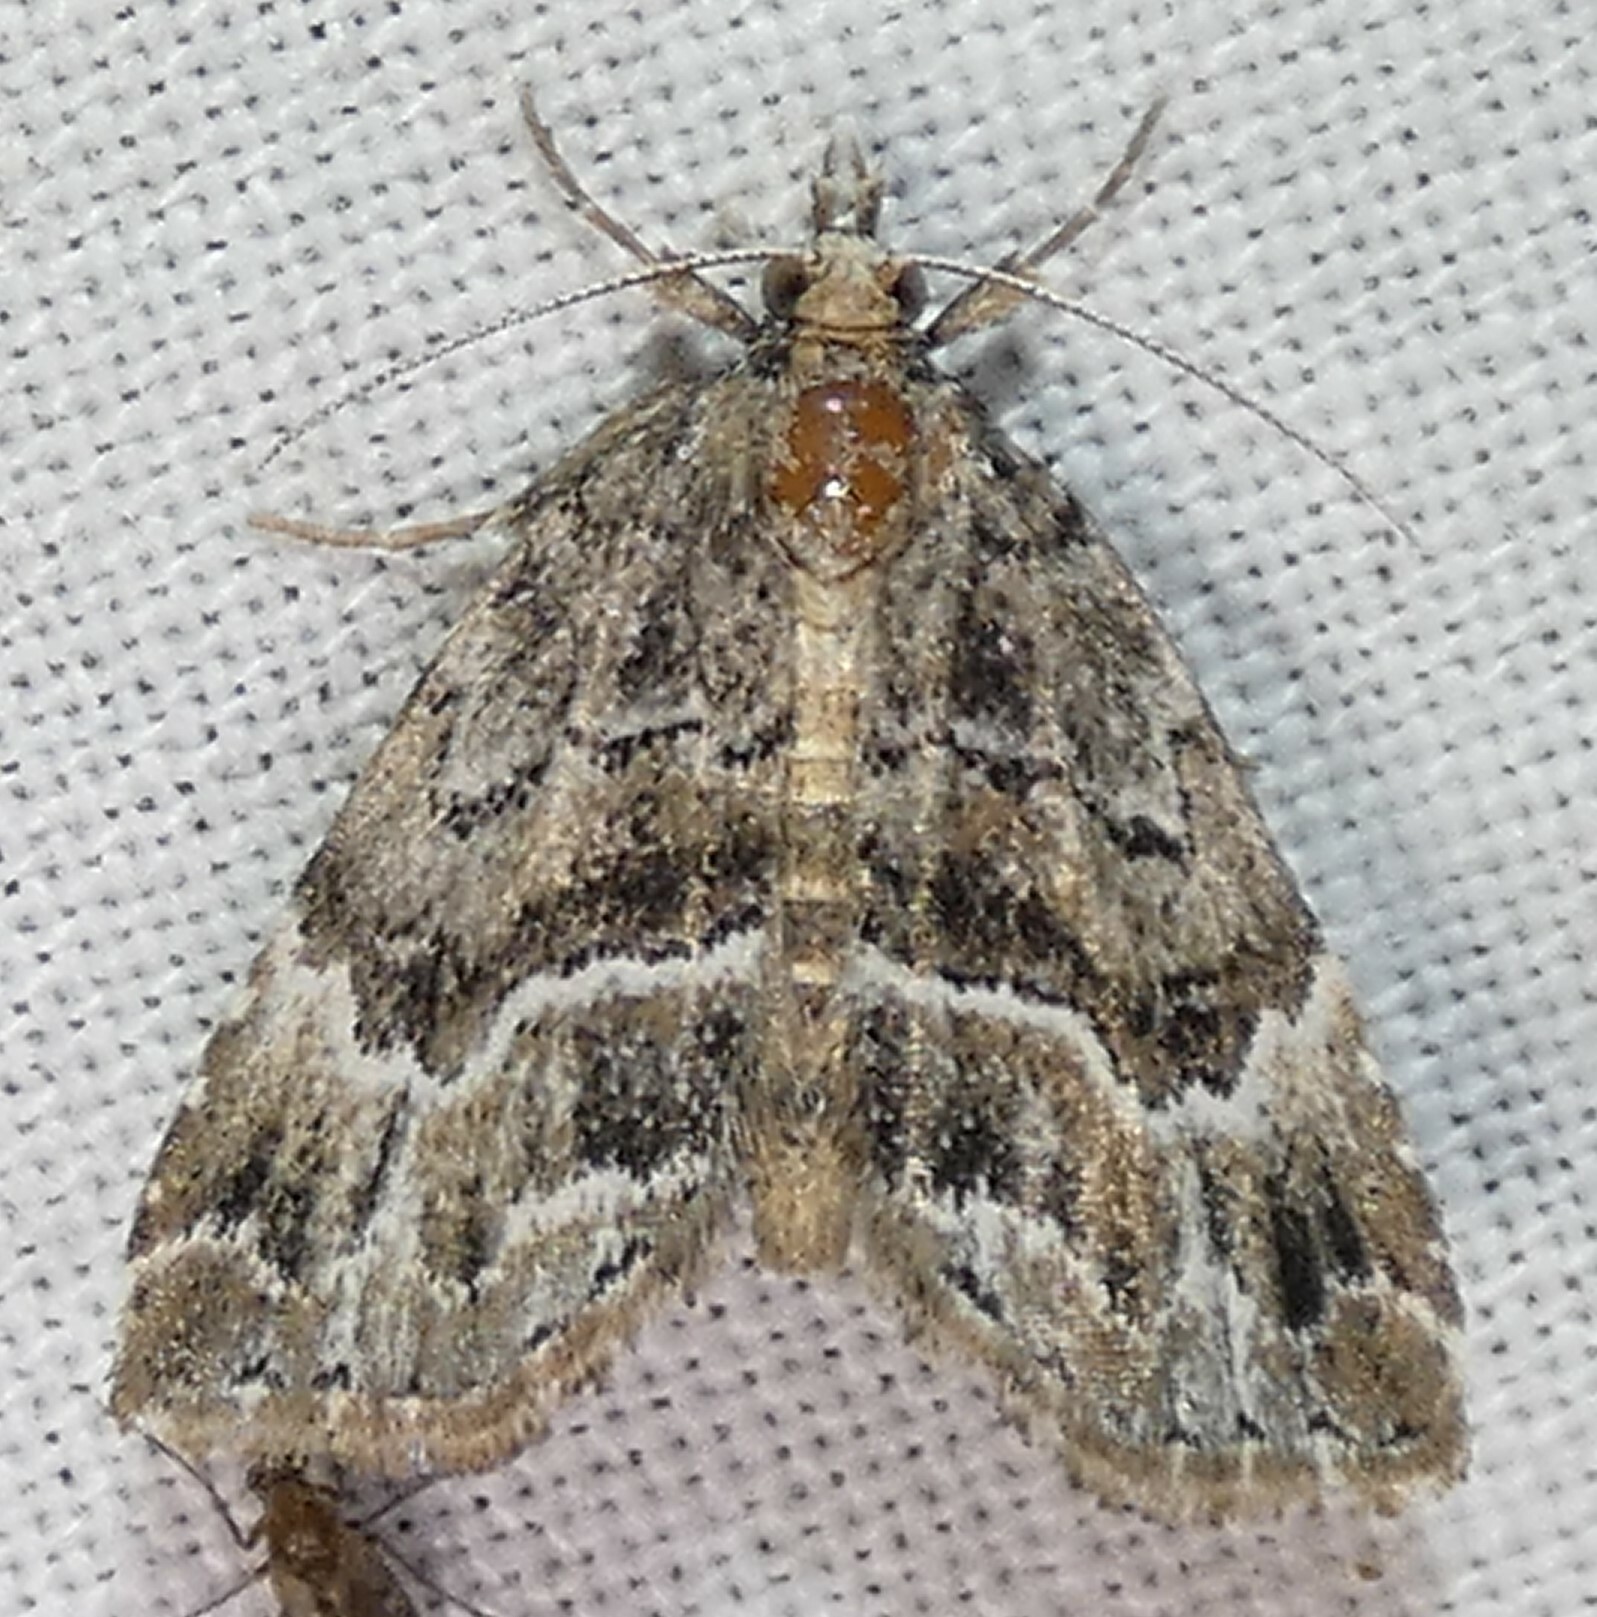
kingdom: Animalia
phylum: Arthropoda
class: Insecta
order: Lepidoptera
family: Erebidae
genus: Cutina
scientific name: Cutina arcuata
